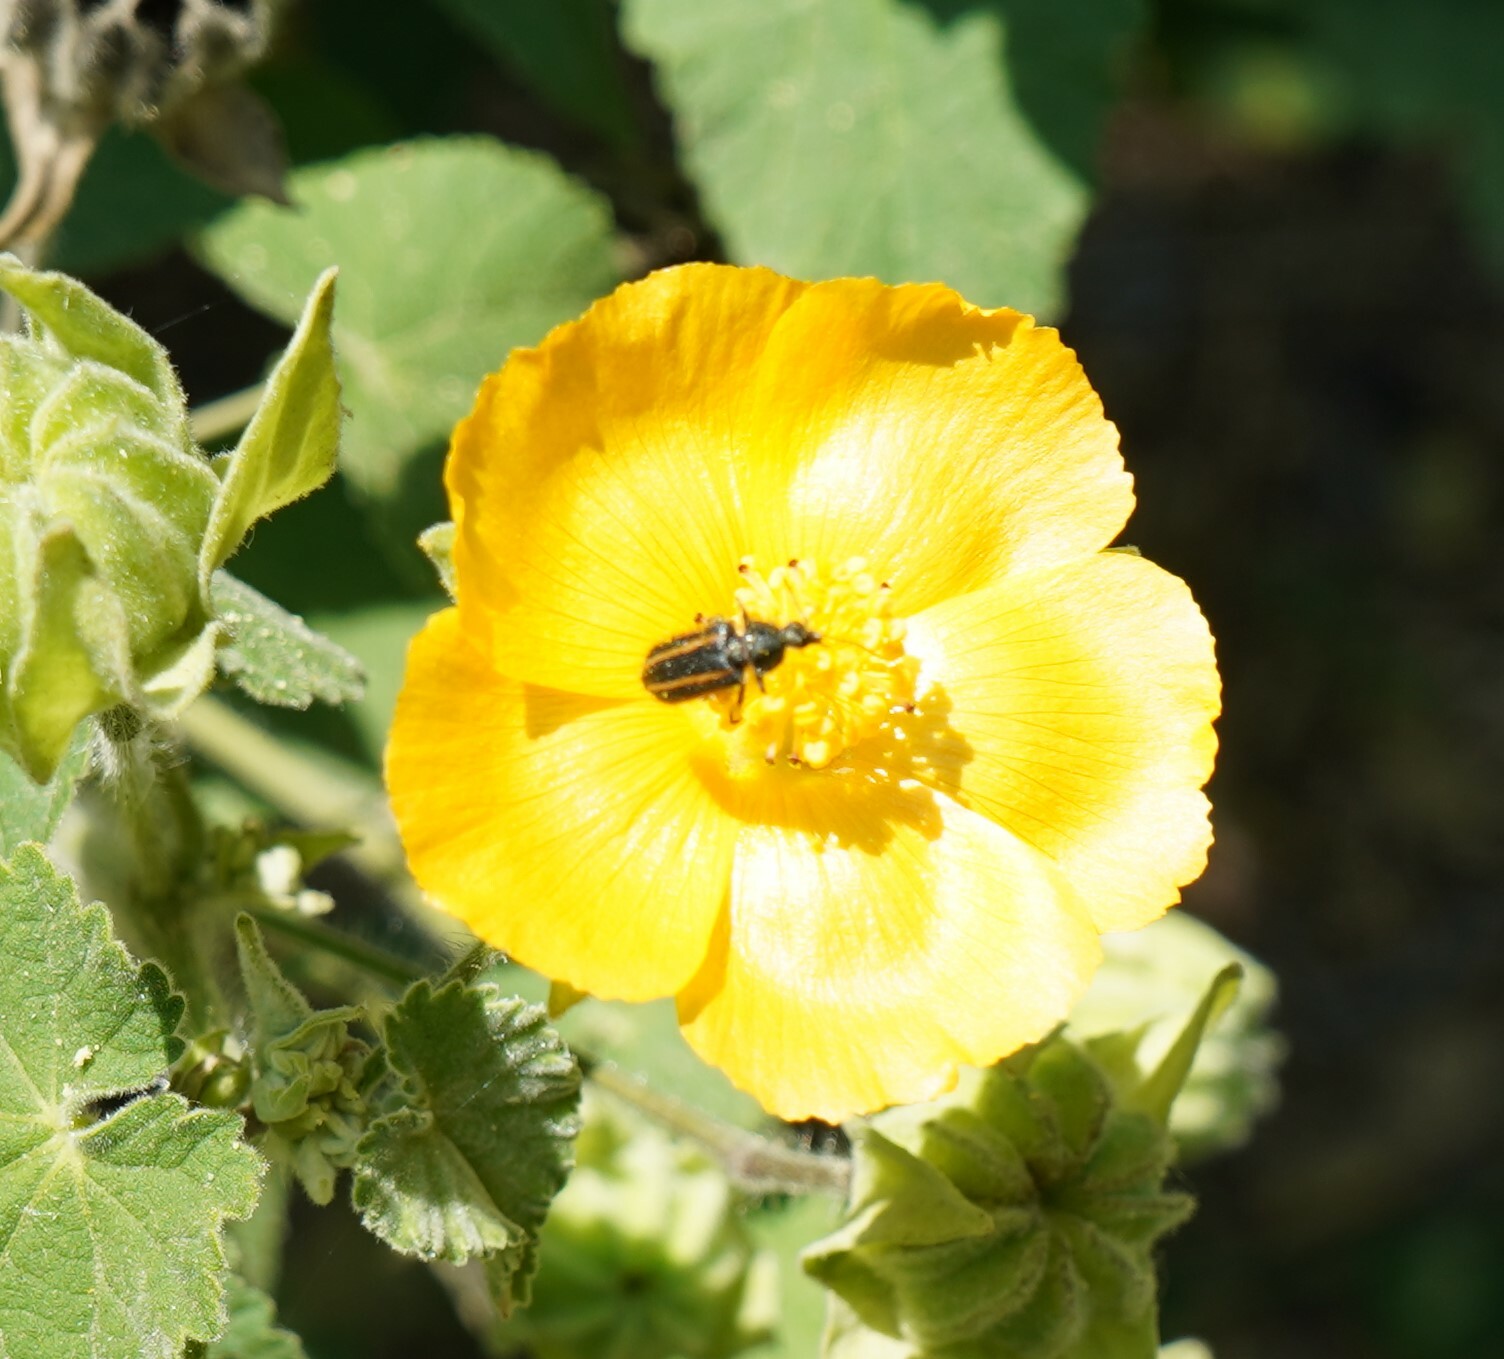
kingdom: Animalia
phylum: Arthropoda
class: Insecta
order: Coleoptera
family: Melyridae
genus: Astylus
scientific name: Astylus
